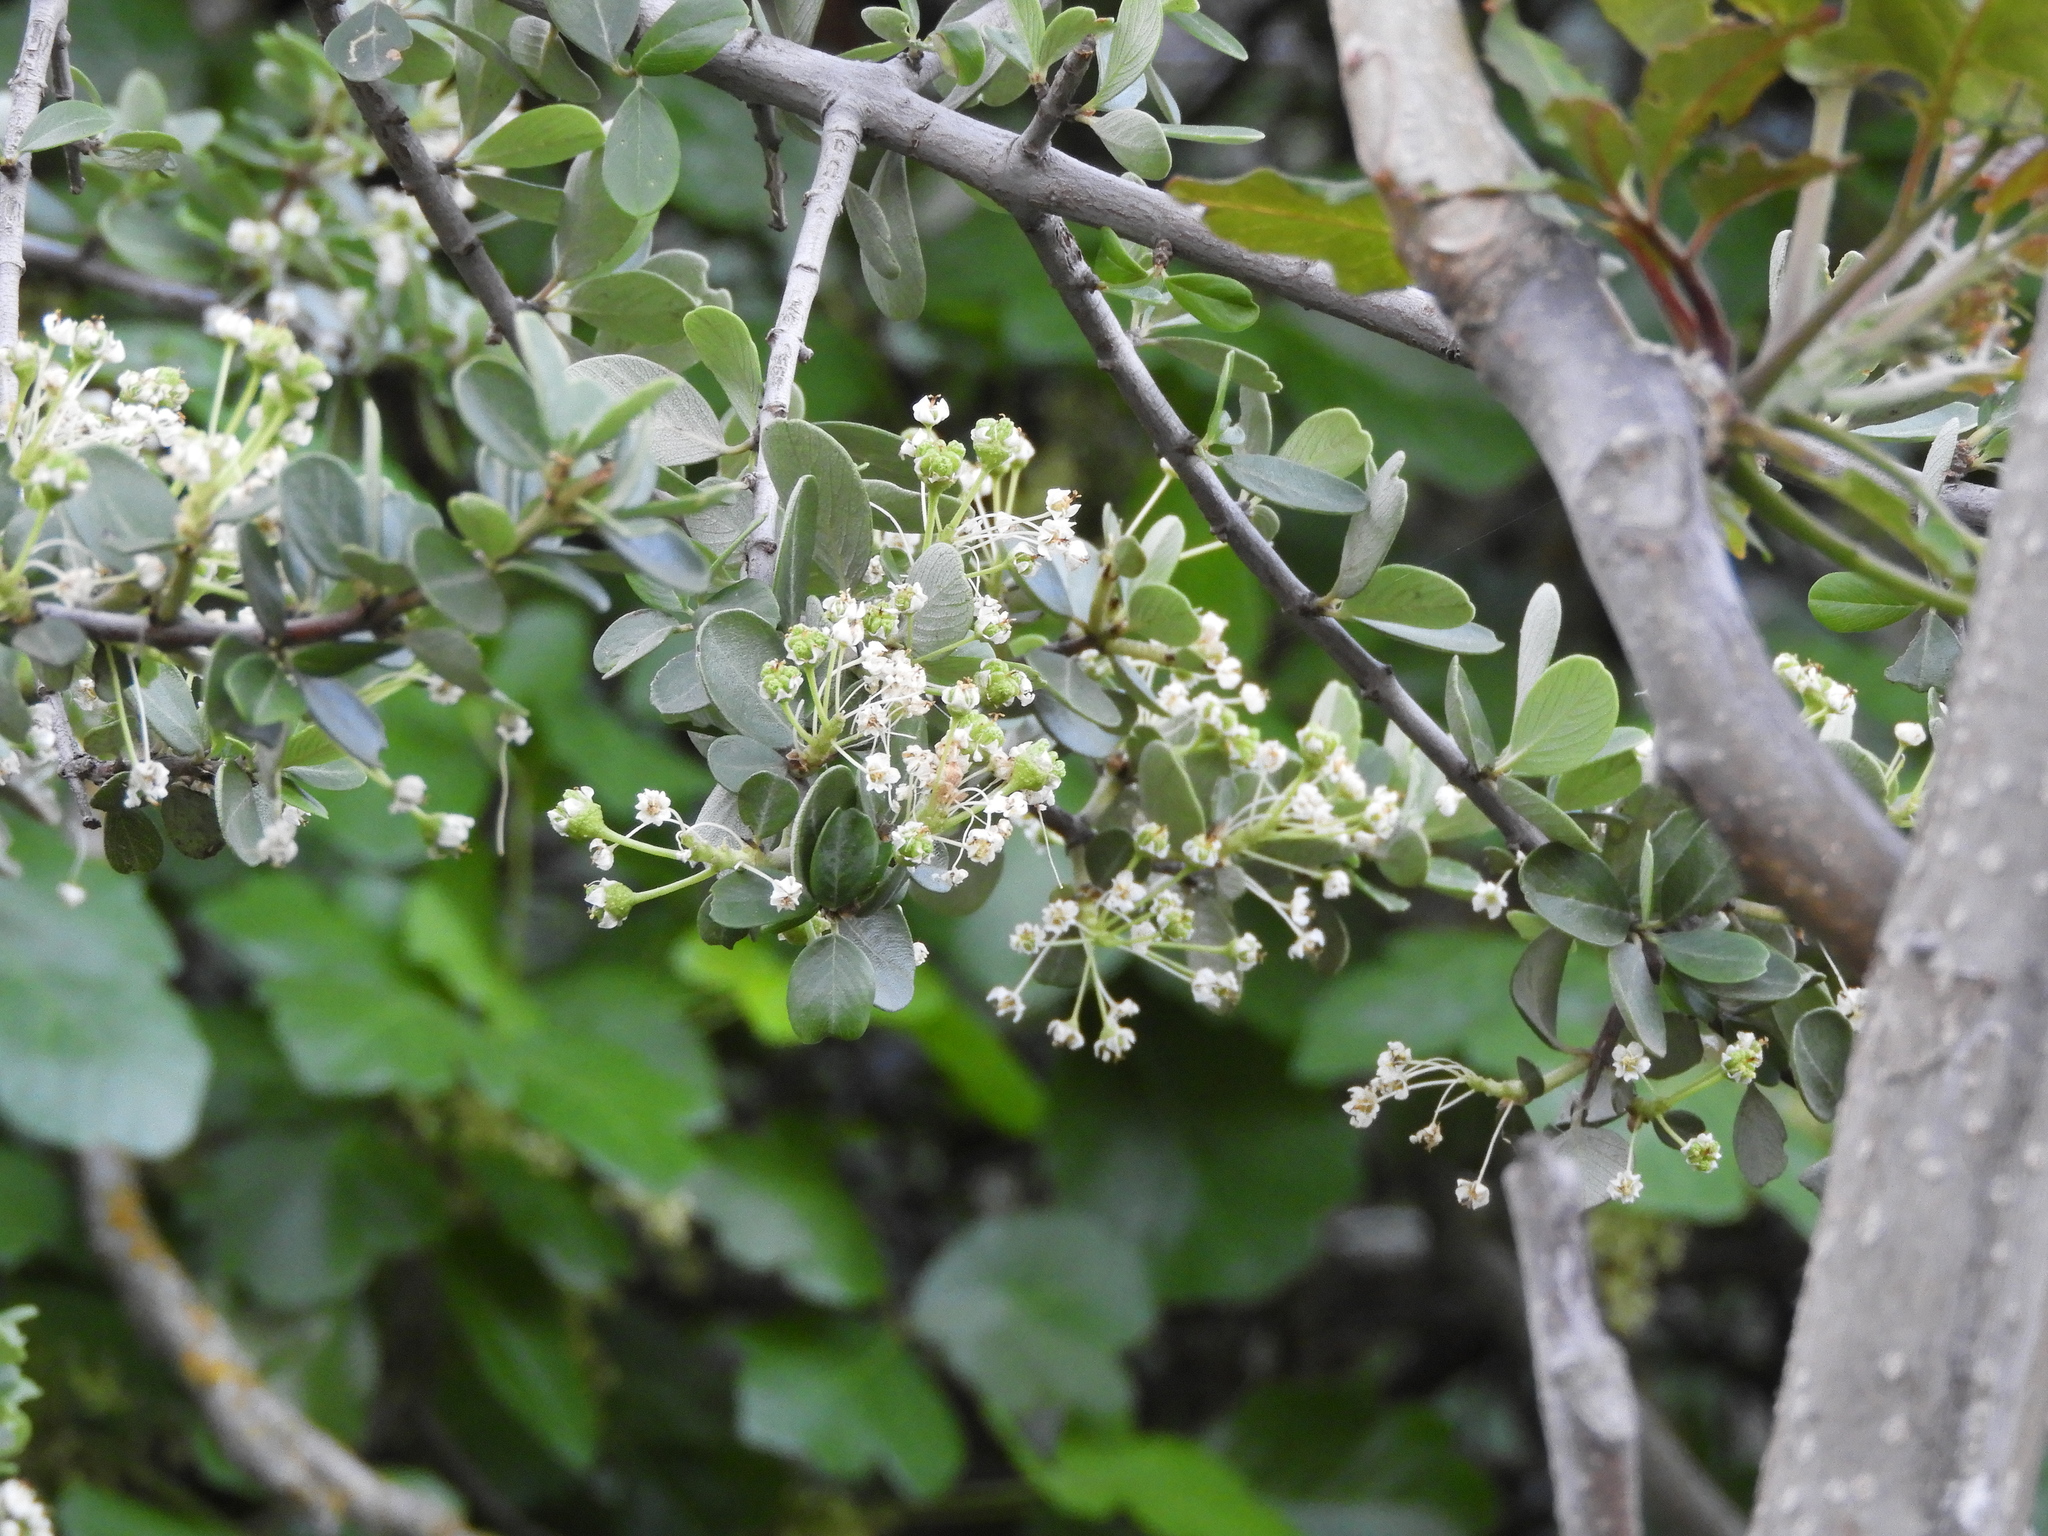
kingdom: Plantae
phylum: Tracheophyta
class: Magnoliopsida
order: Rosales
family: Rhamnaceae
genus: Ceanothus
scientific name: Ceanothus cuneatus
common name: Cuneate ceanothus
